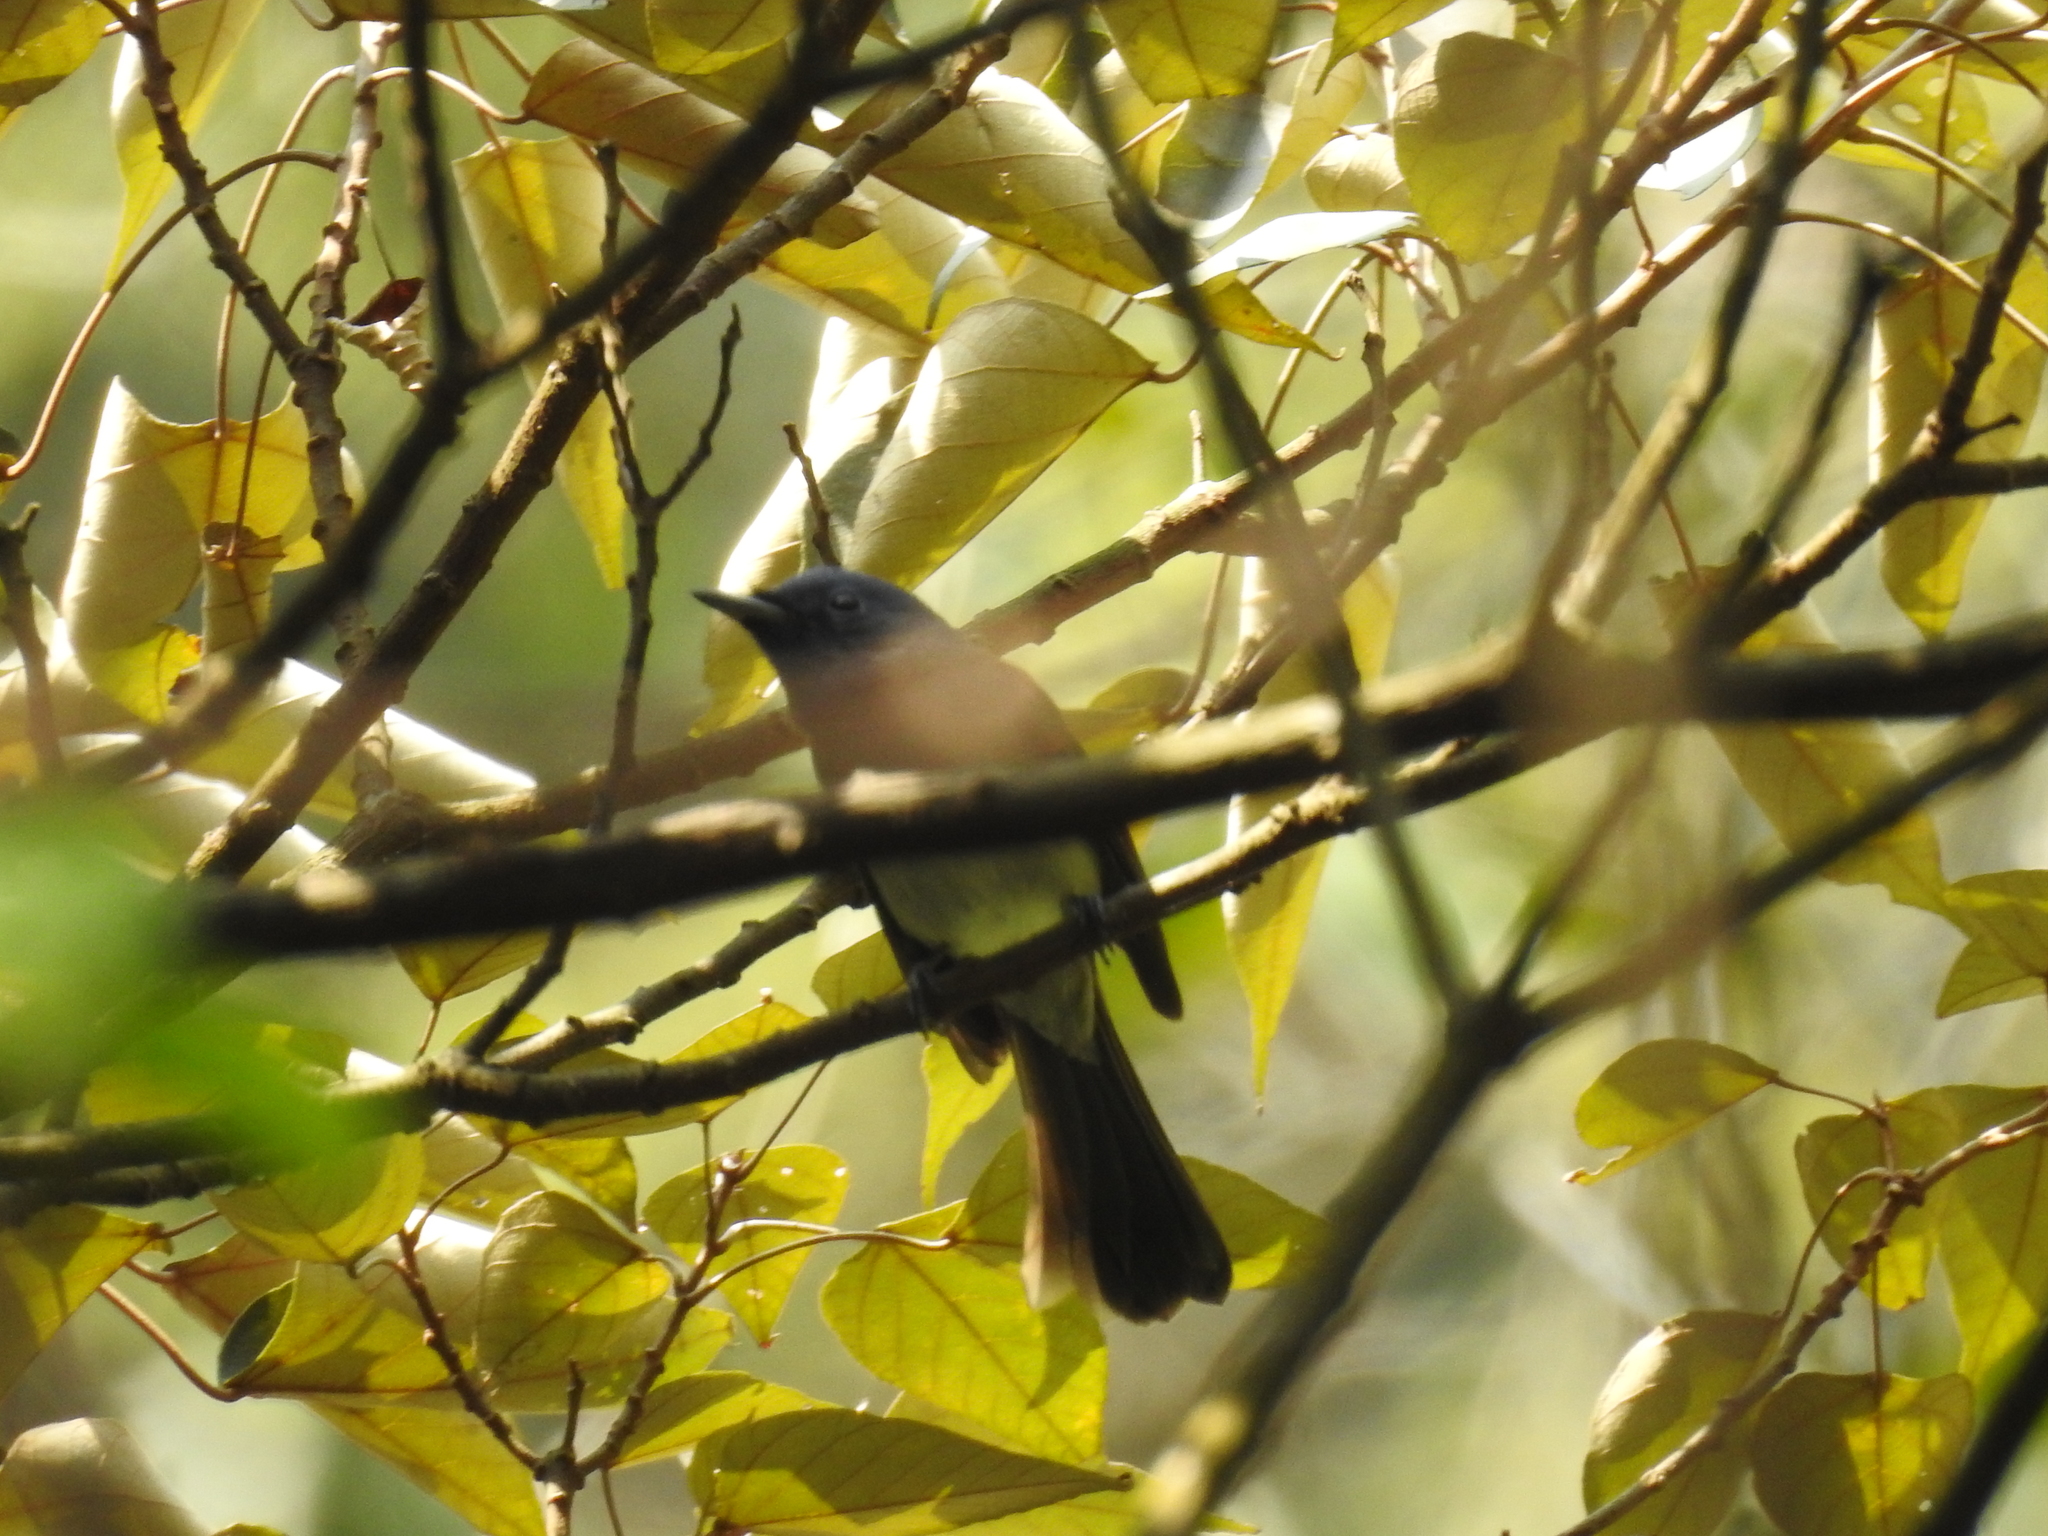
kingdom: Animalia
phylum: Chordata
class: Aves
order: Passeriformes
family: Monarchidae
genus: Hypothymis
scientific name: Hypothymis azurea
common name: Black-naped monarch
